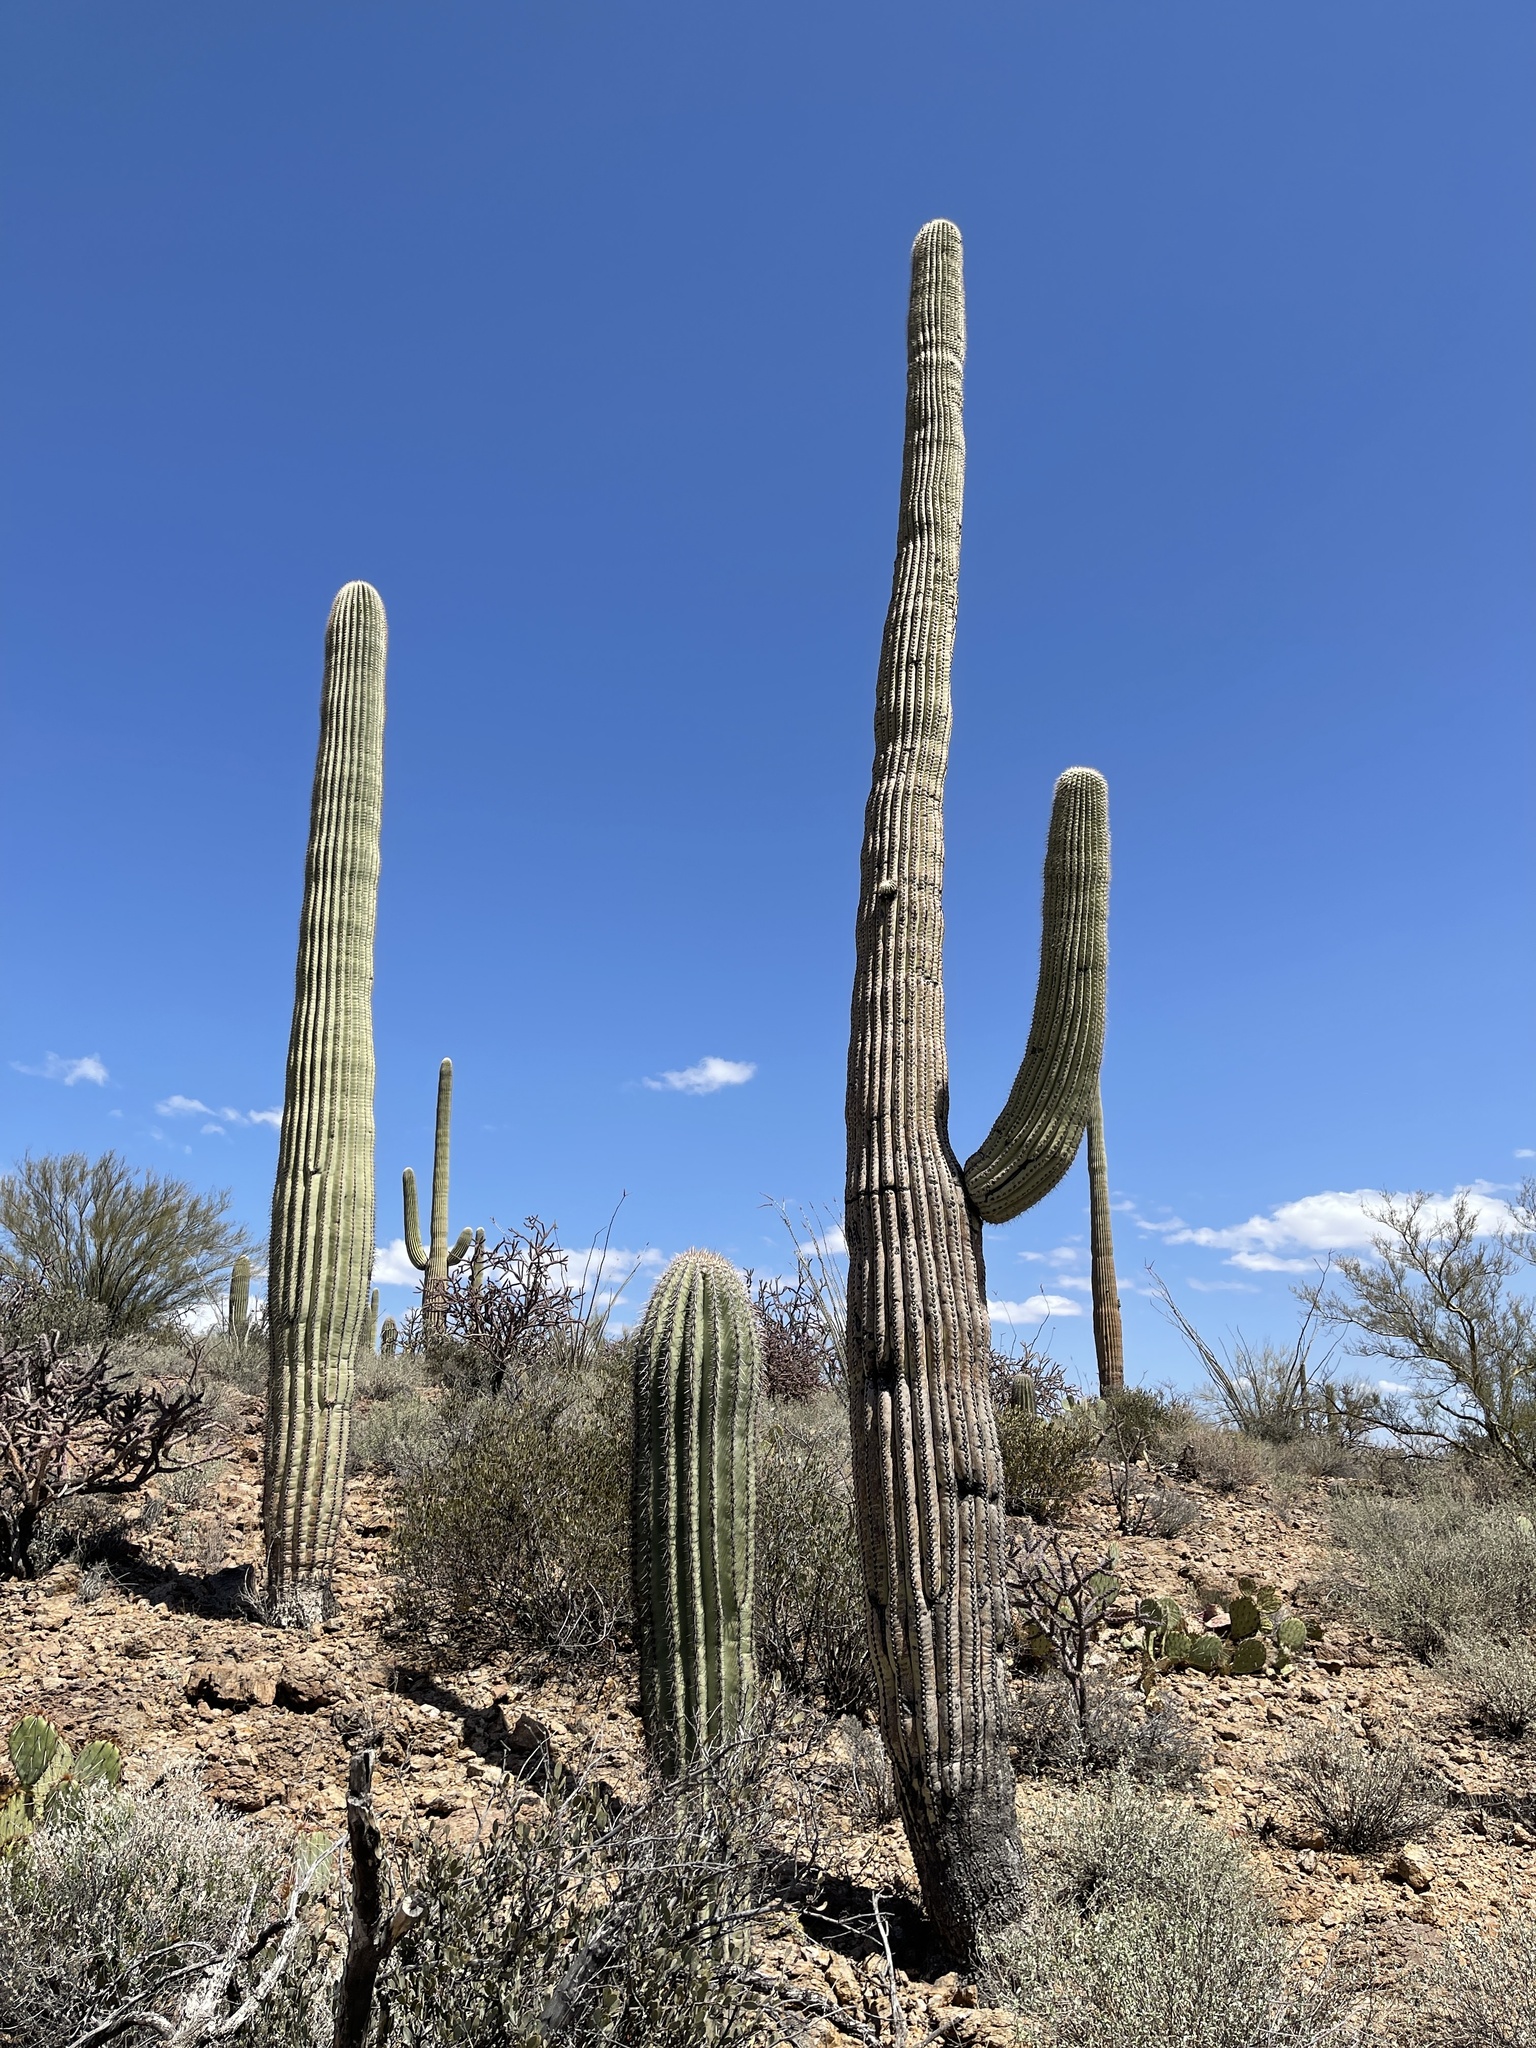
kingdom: Plantae
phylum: Tracheophyta
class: Magnoliopsida
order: Caryophyllales
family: Cactaceae
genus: Carnegiea
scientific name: Carnegiea gigantea
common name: Saguaro
